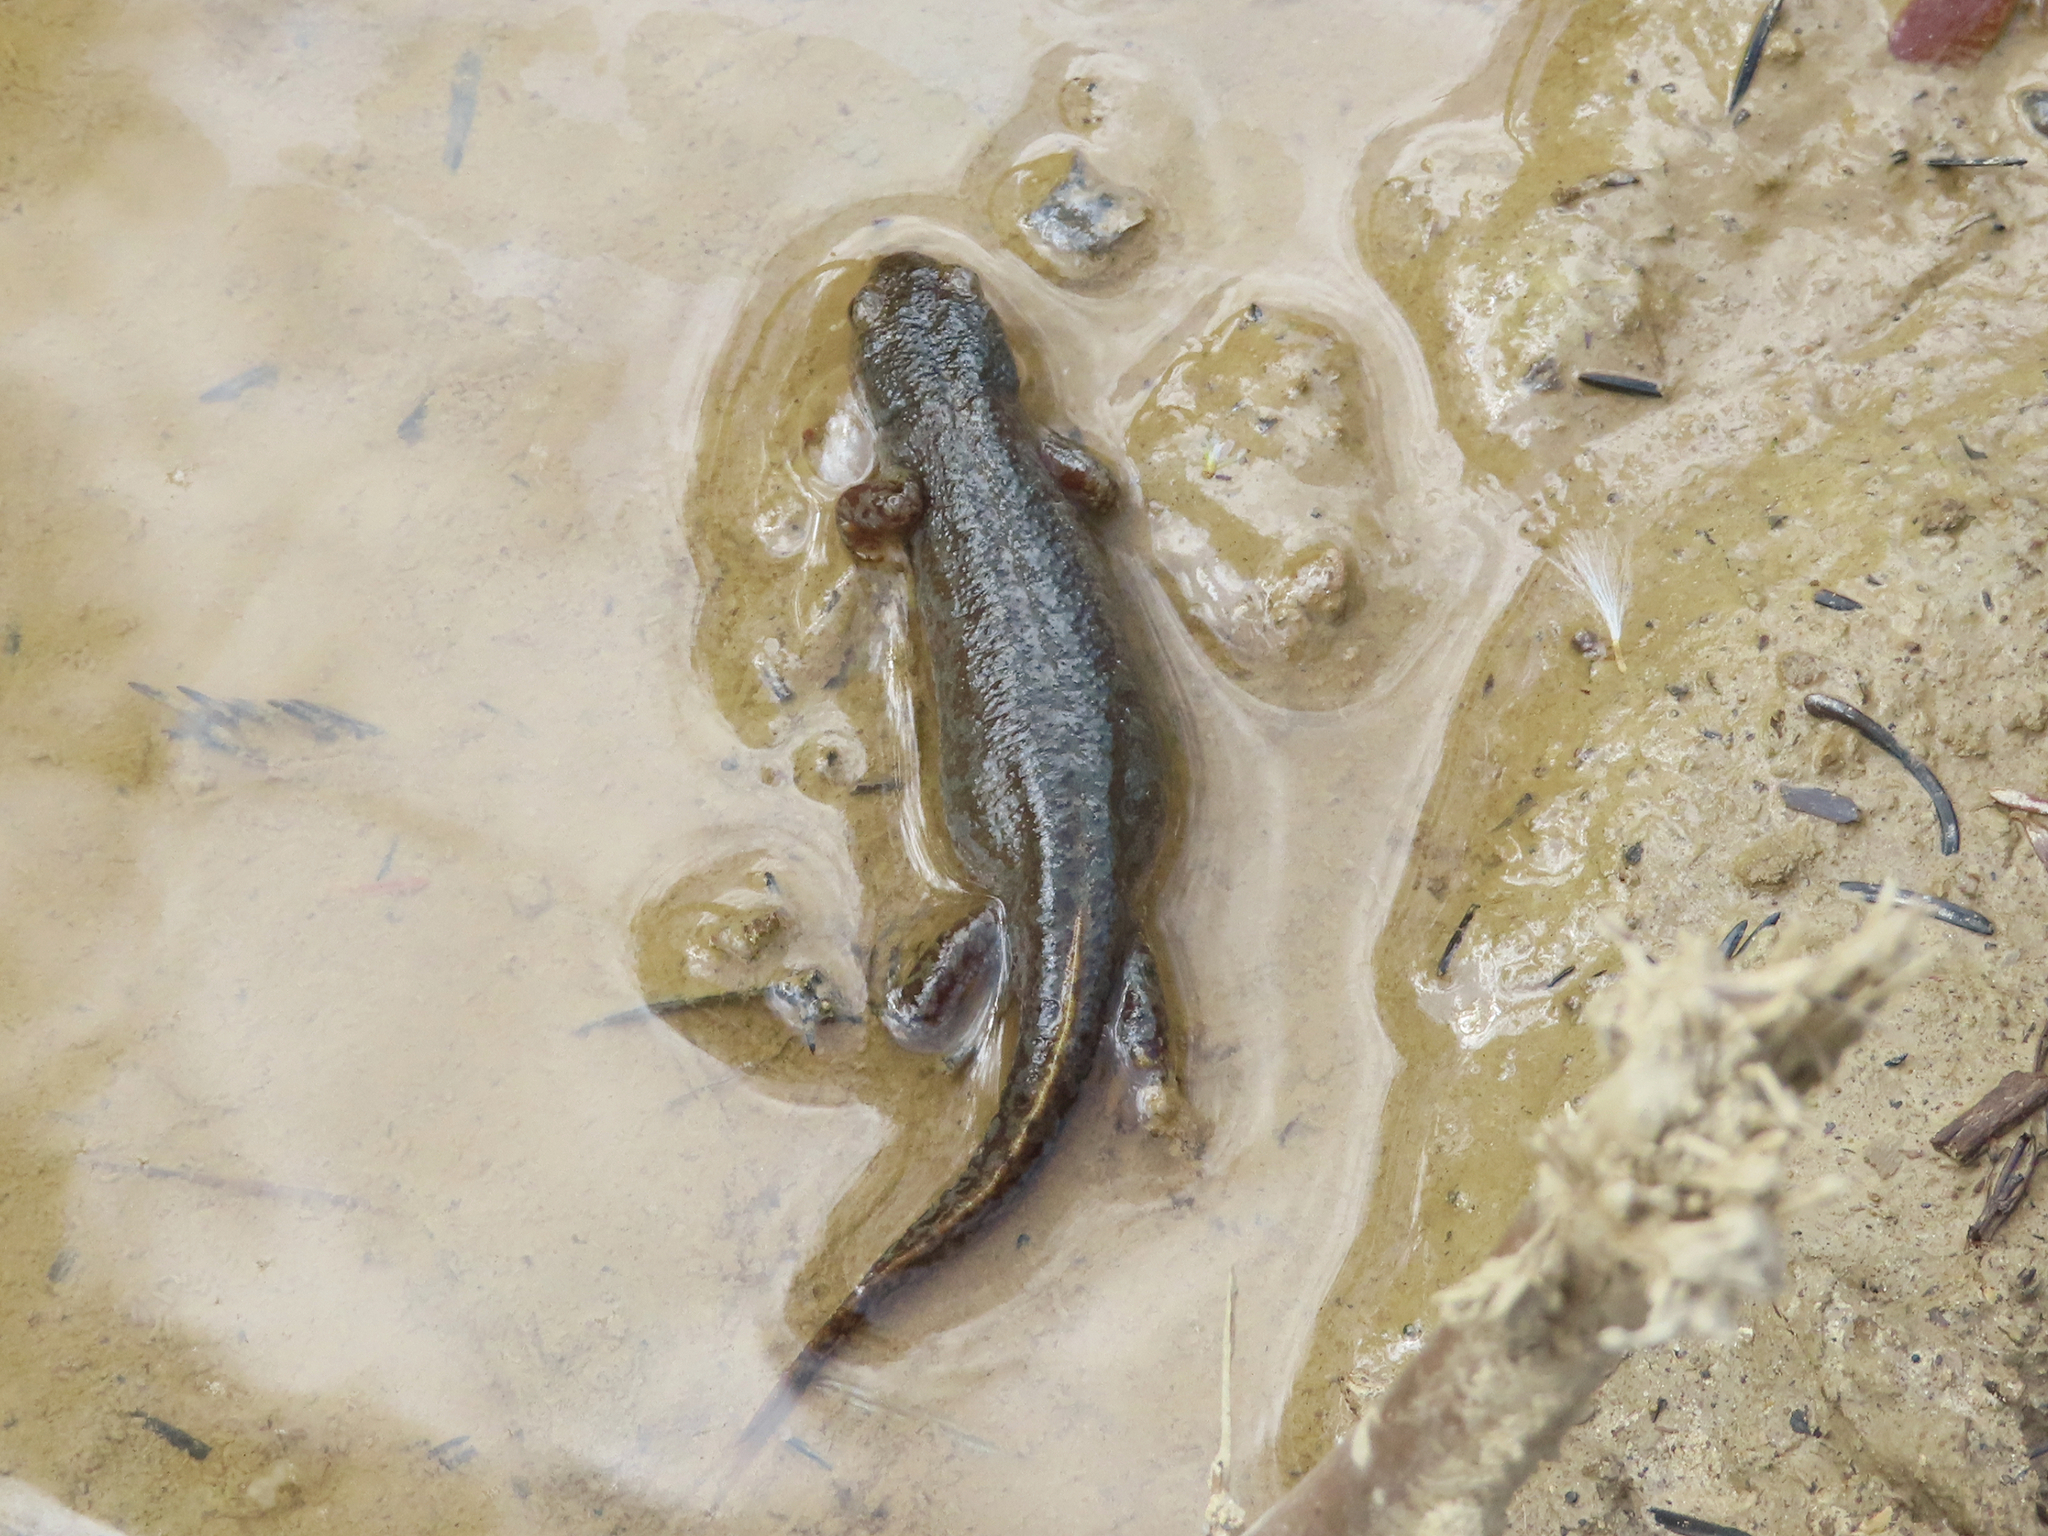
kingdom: Animalia
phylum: Chordata
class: Amphibia
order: Caudata
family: Salamandridae
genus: Ichthyosaura
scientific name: Ichthyosaura alpestris
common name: Alpine newt
